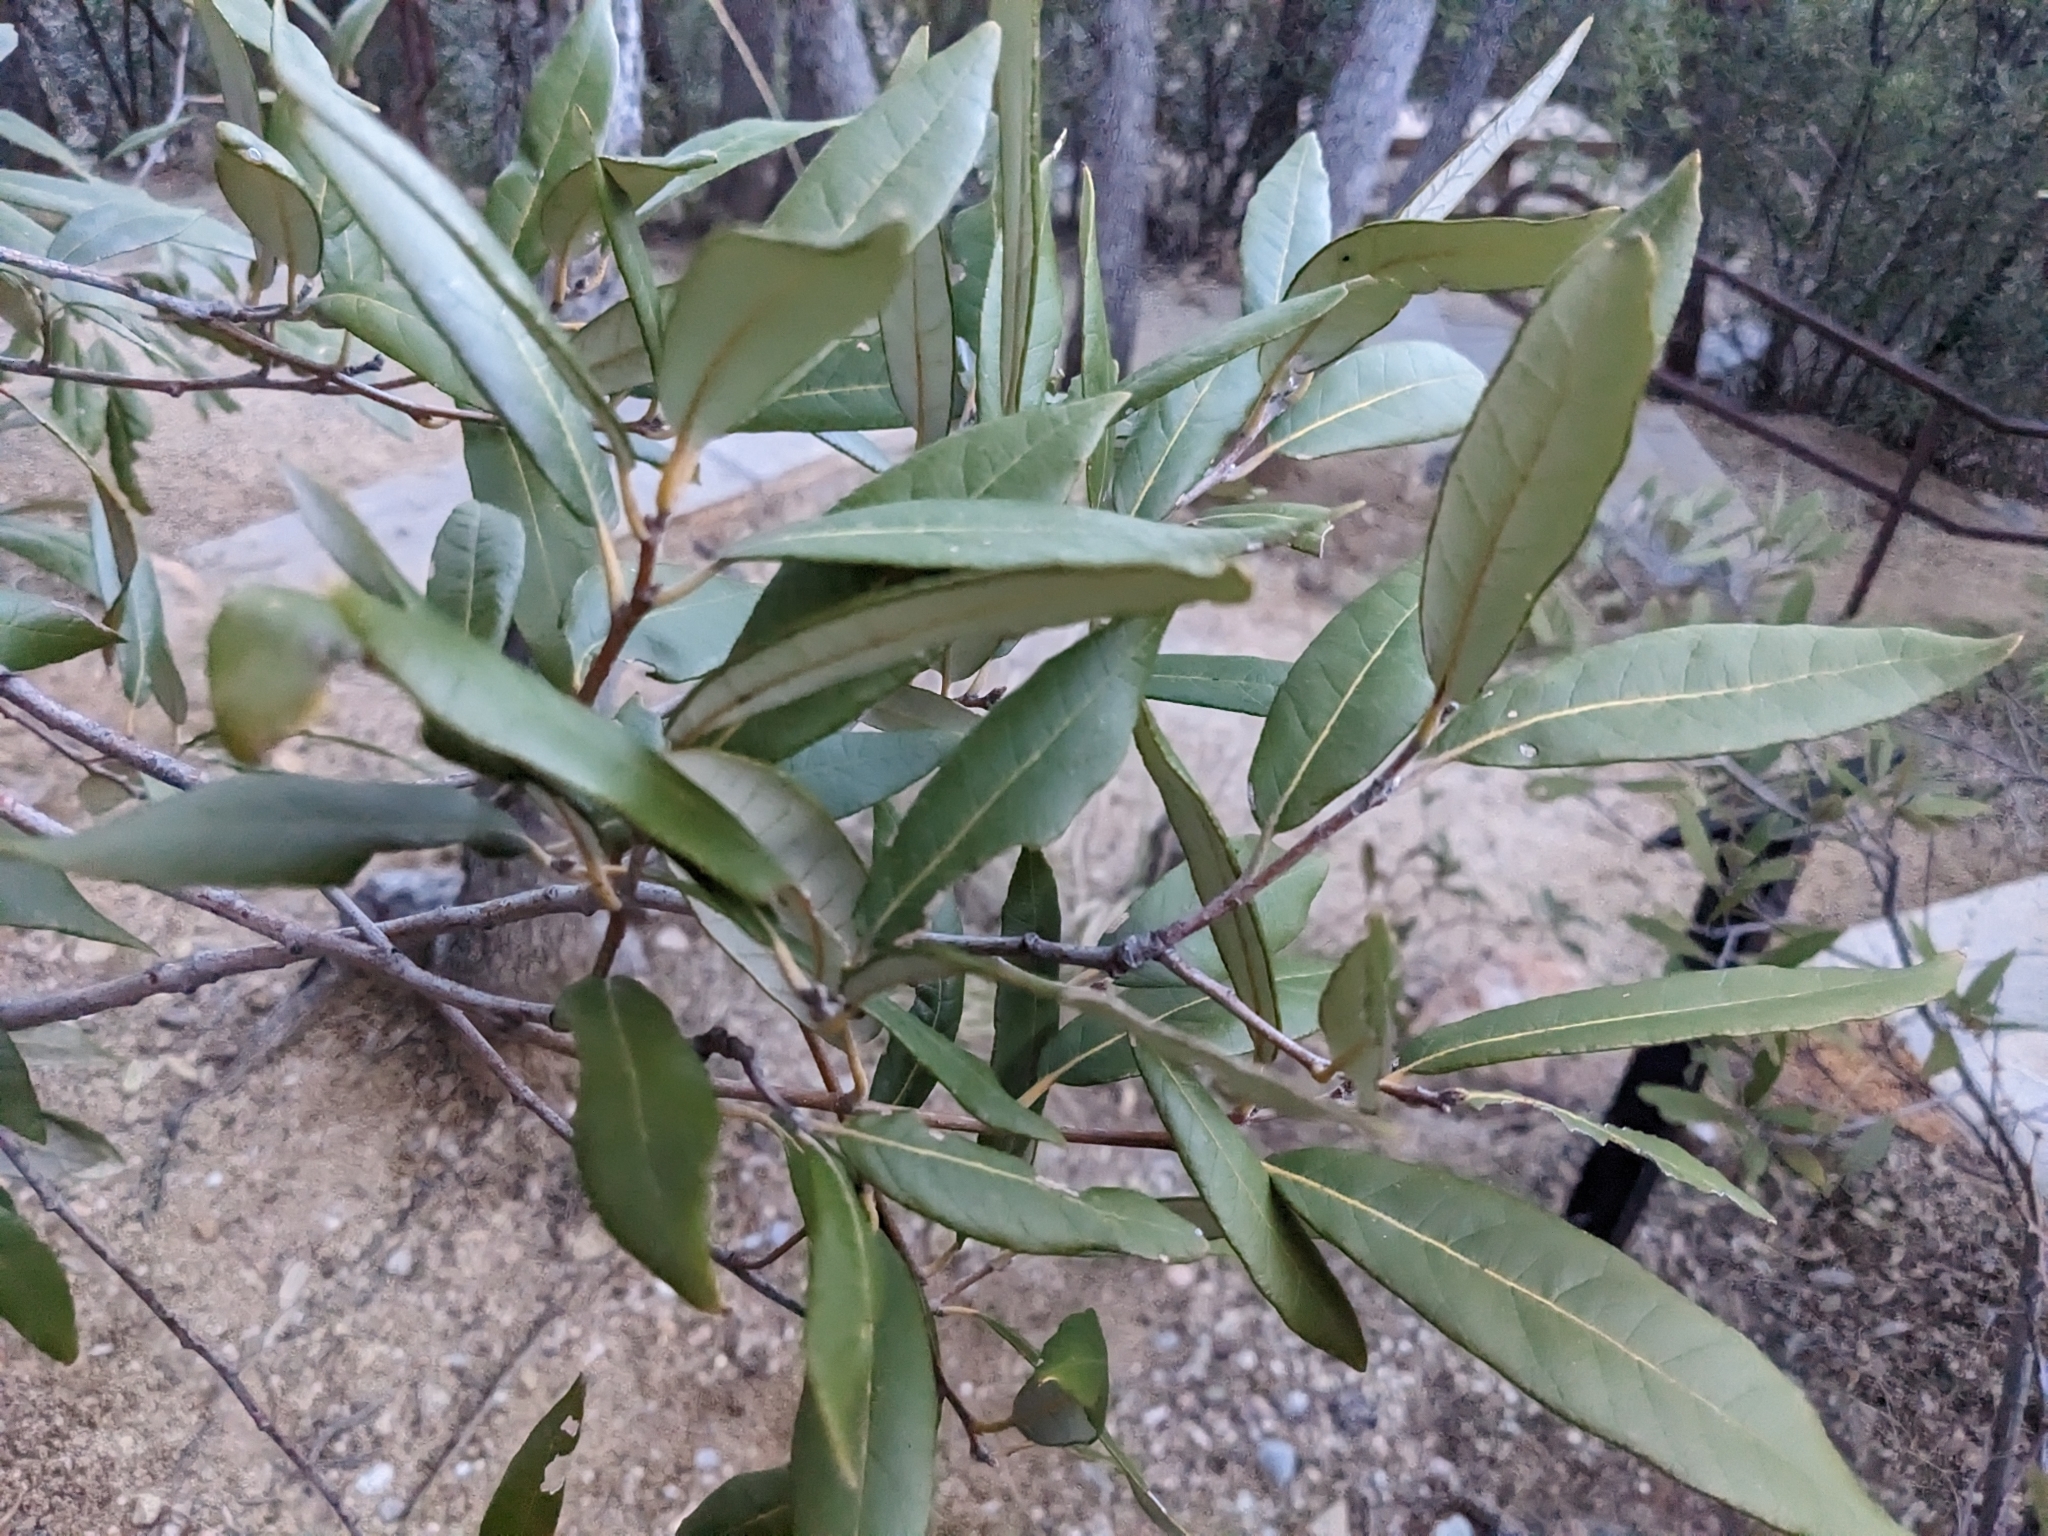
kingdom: Plantae
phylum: Tracheophyta
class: Magnoliopsida
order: Fagales
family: Fagaceae
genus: Quercus
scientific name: Quercus hypoleucoides
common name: Silverleaf oak
